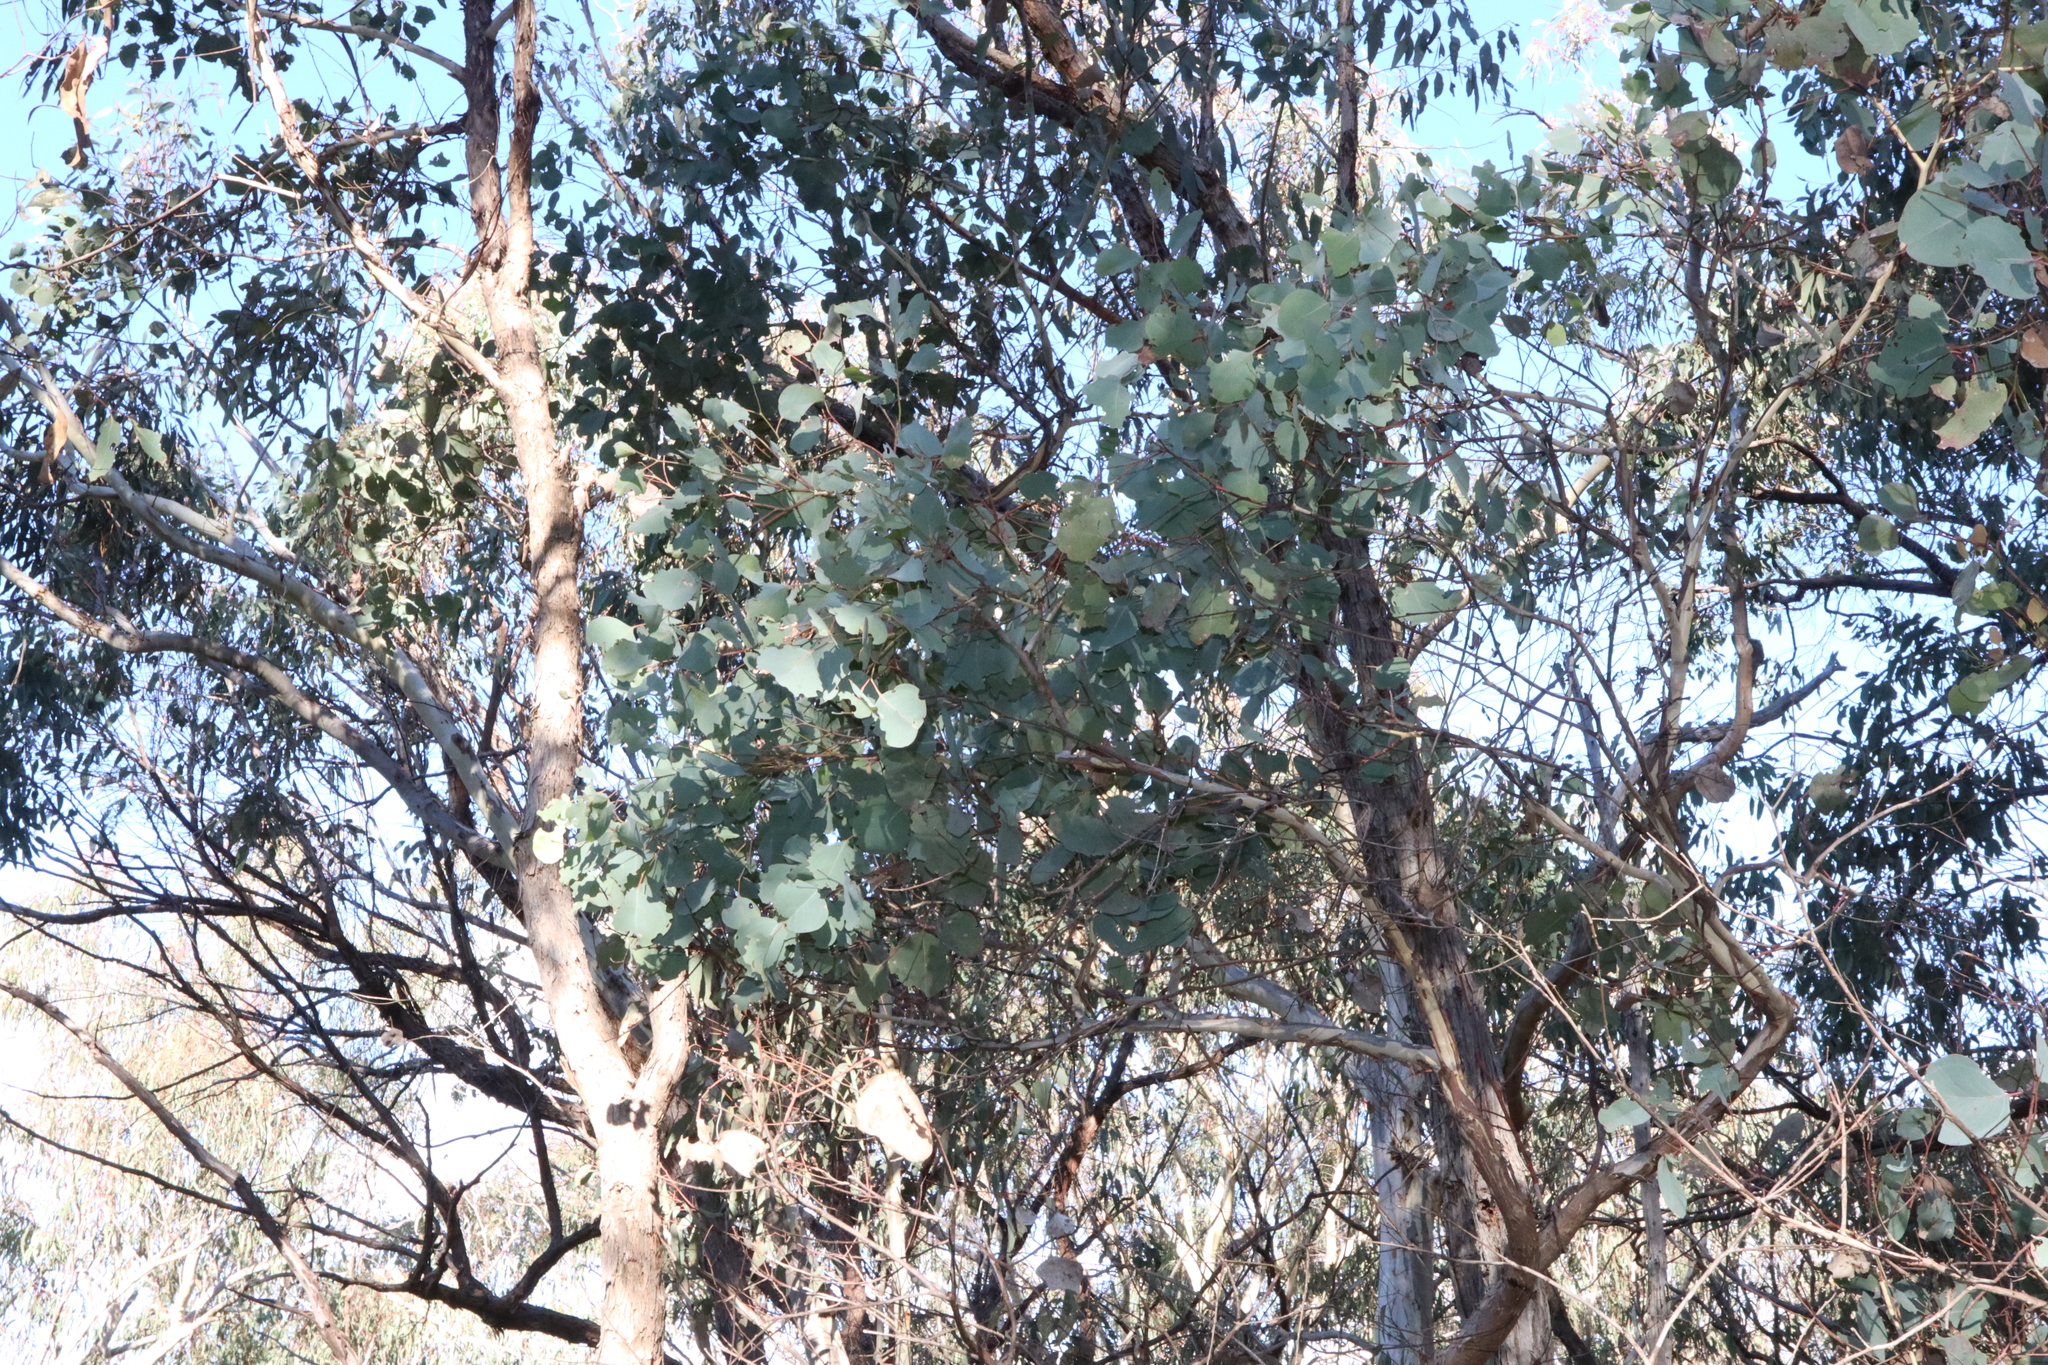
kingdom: Plantae
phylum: Tracheophyta
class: Magnoliopsida
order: Myrtales
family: Myrtaceae
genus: Eucalyptus
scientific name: Eucalyptus polyanthemos
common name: Red-box
